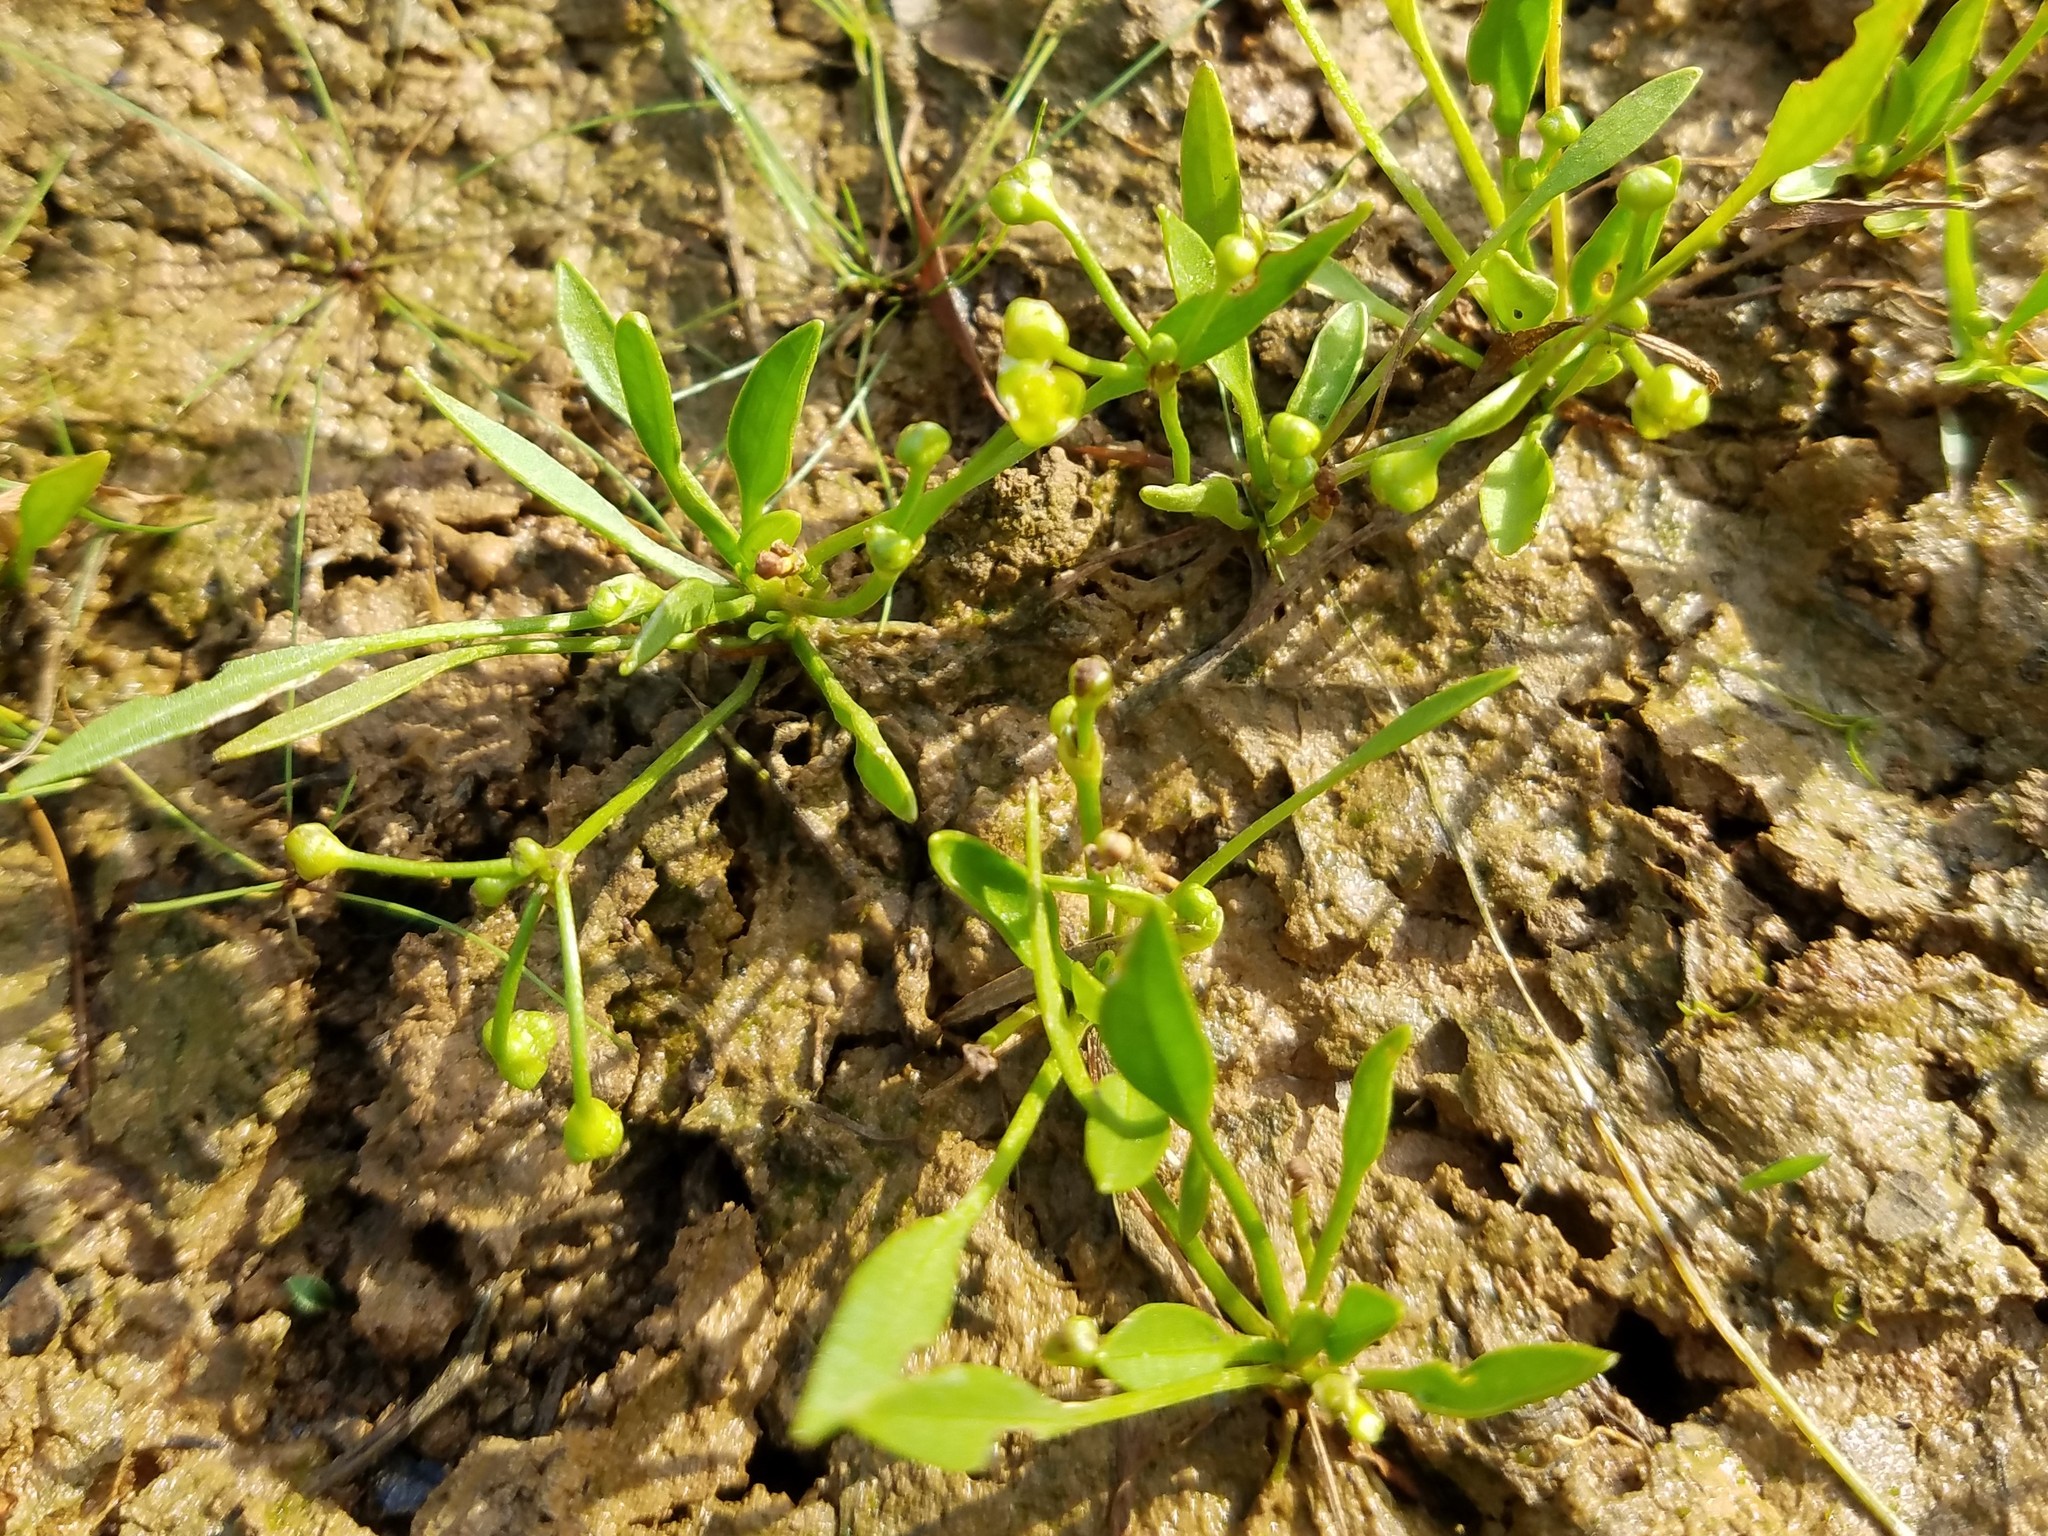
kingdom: Plantae
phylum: Tracheophyta
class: Liliopsida
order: Alismatales
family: Alismataceae
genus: Helanthium
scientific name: Helanthium tenellum
